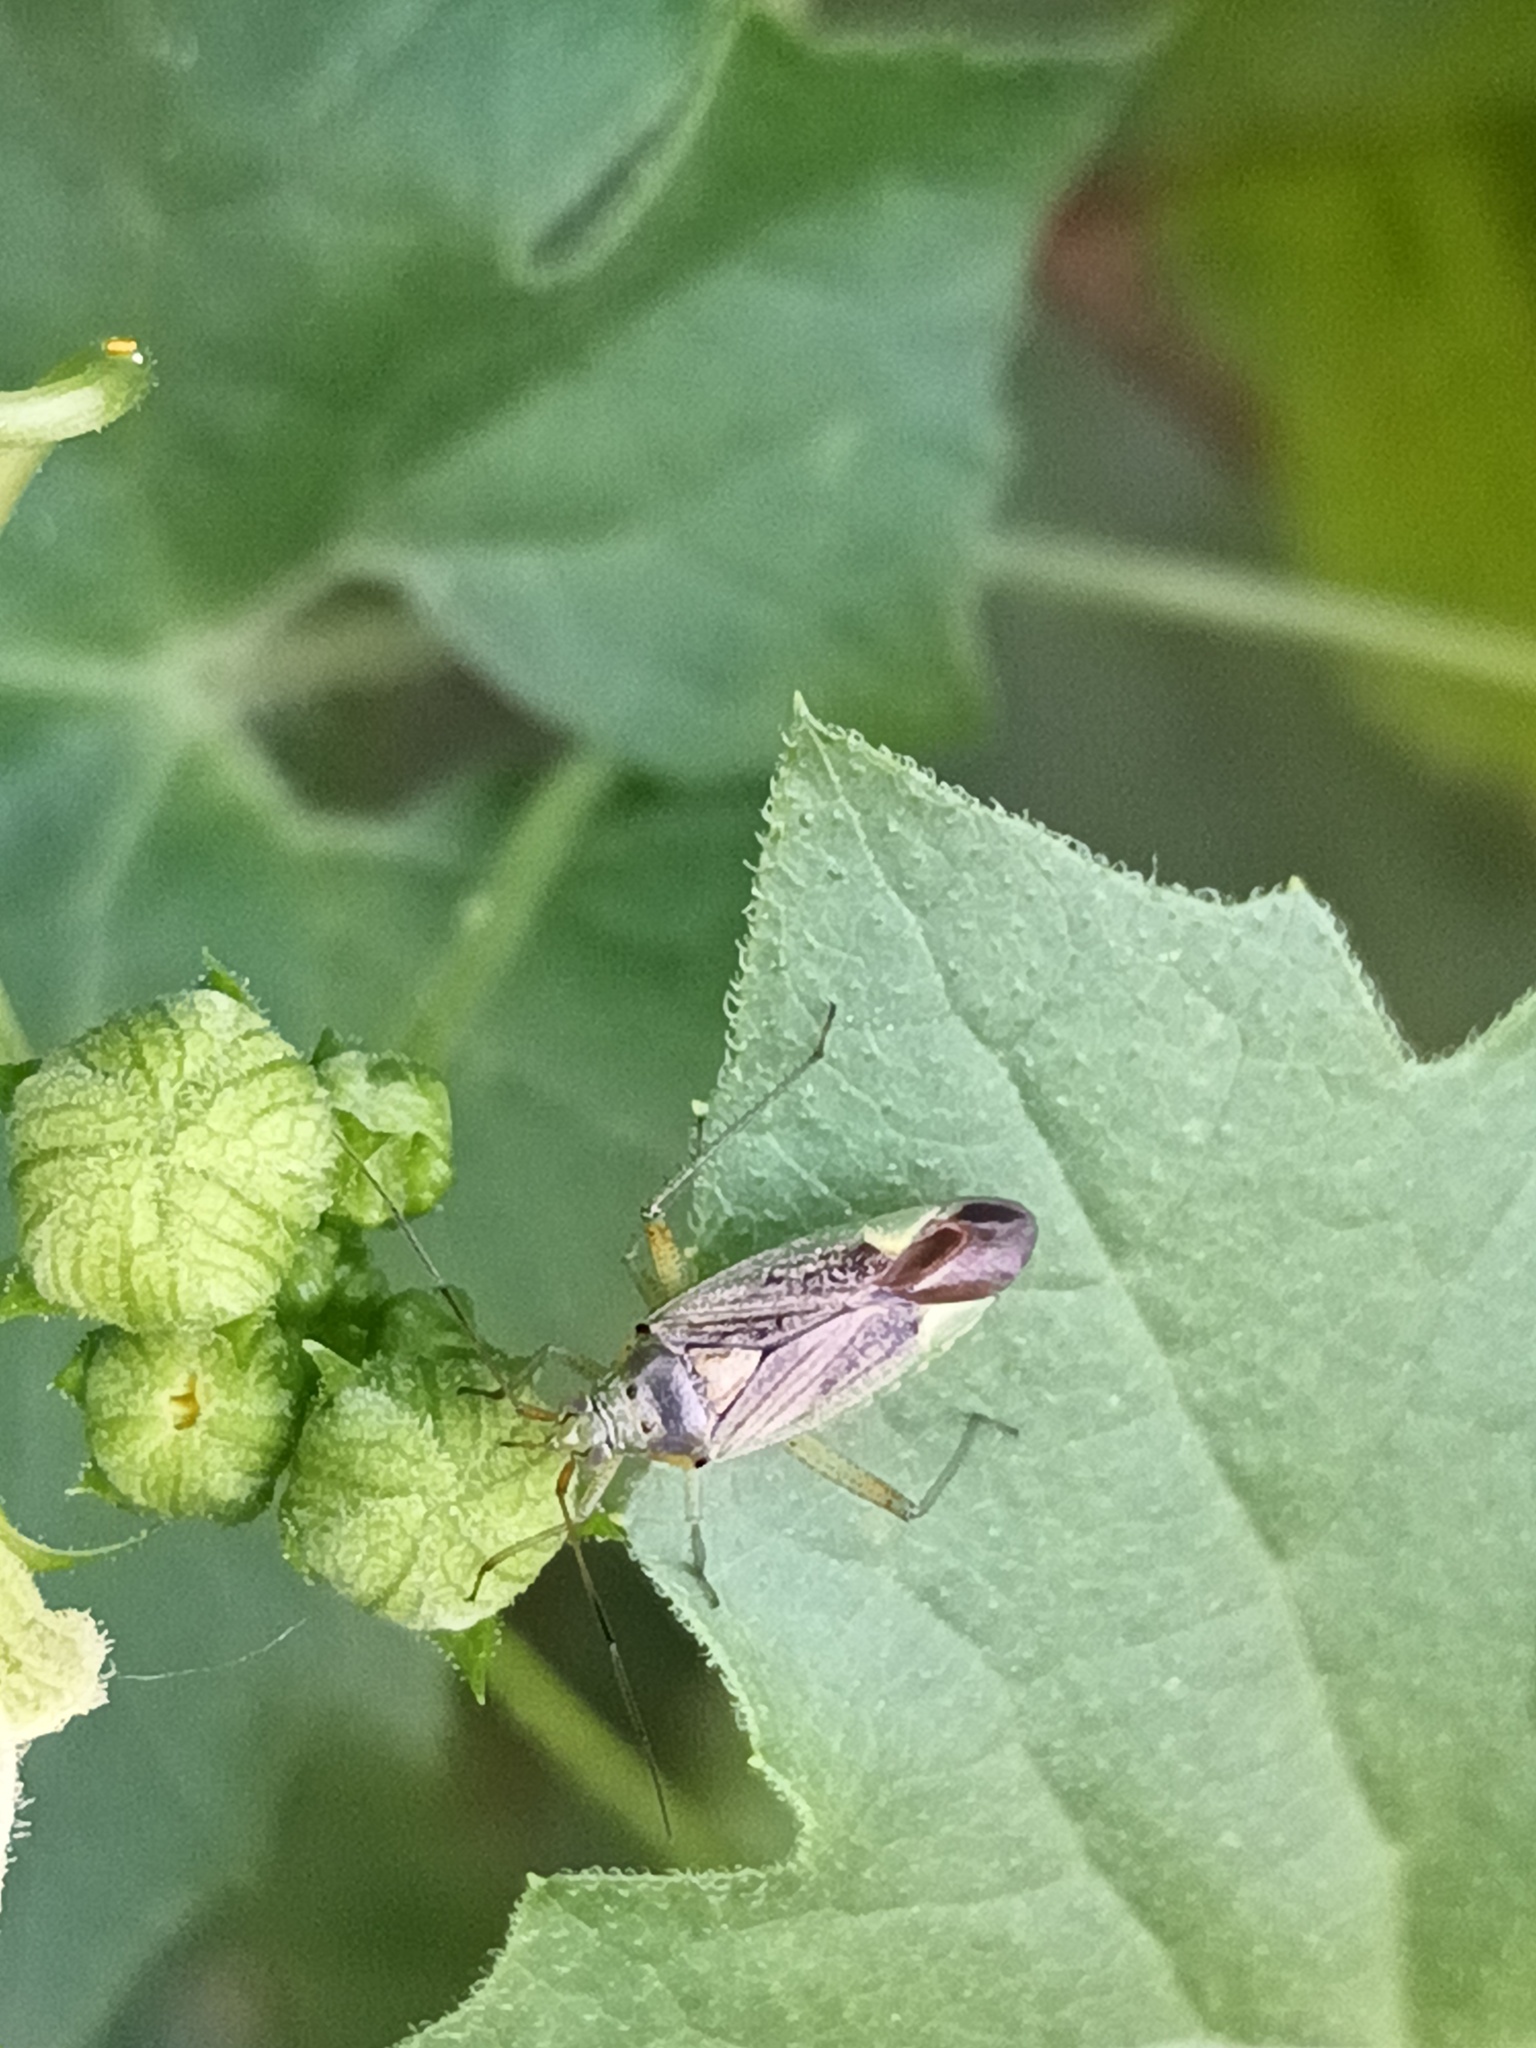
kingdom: Animalia
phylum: Arthropoda
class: Insecta
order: Hemiptera
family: Miridae
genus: Closterotomus
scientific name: Closterotomus trivialis
